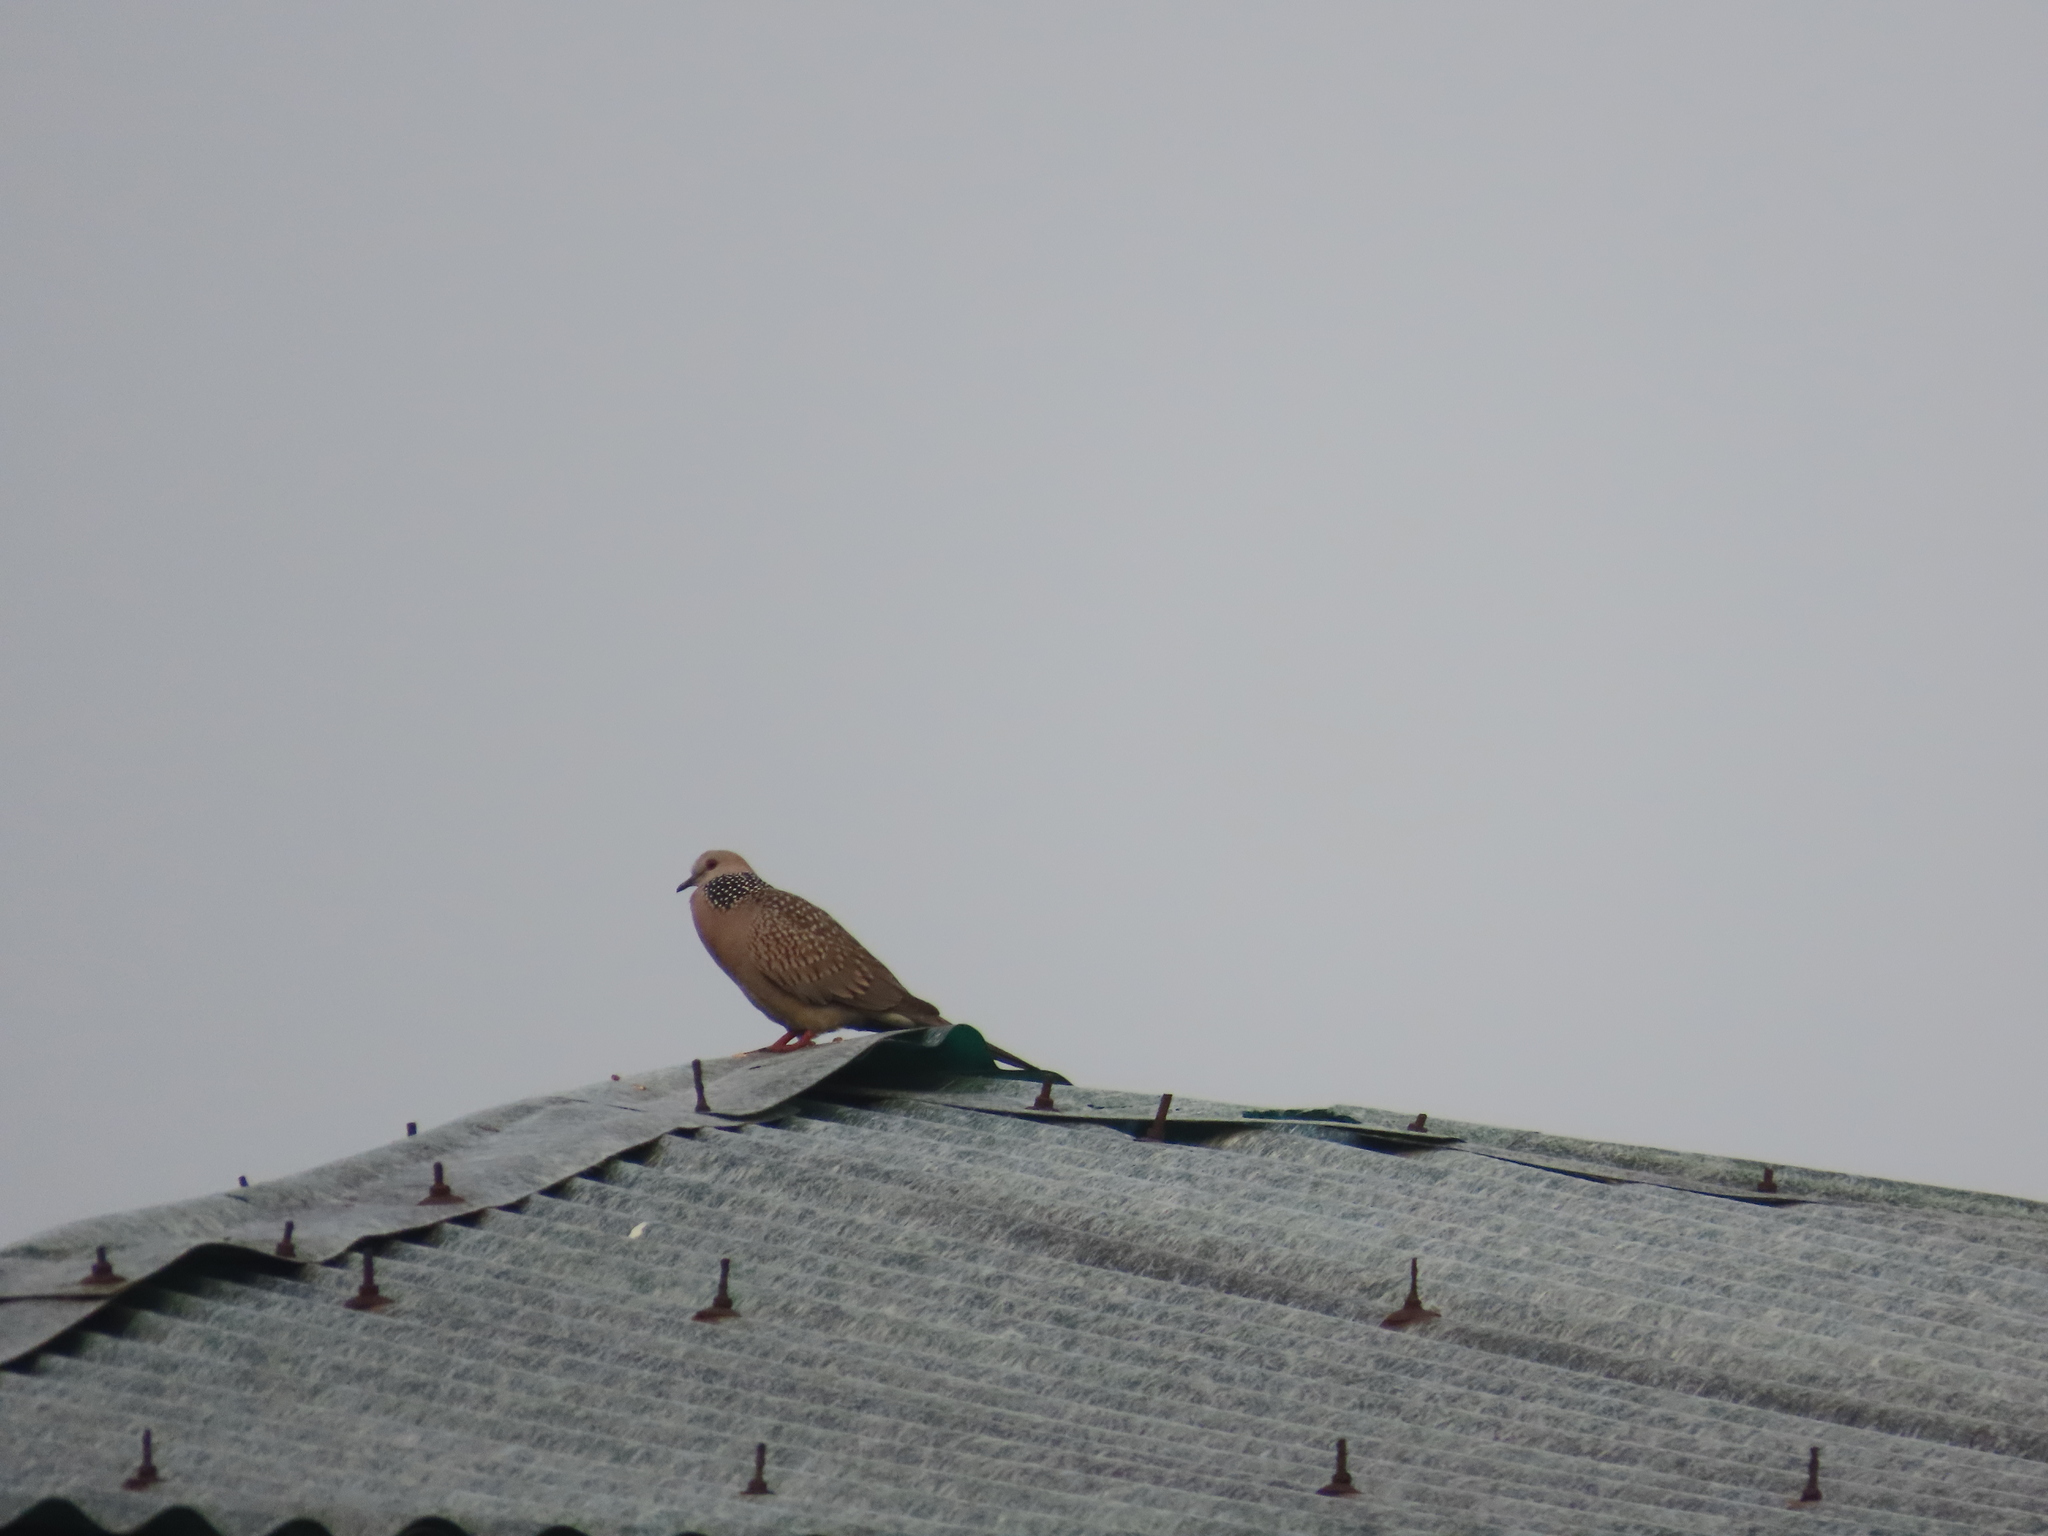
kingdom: Animalia
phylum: Chordata
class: Aves
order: Columbiformes
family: Columbidae
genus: Spilopelia
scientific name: Spilopelia chinensis
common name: Spotted dove
